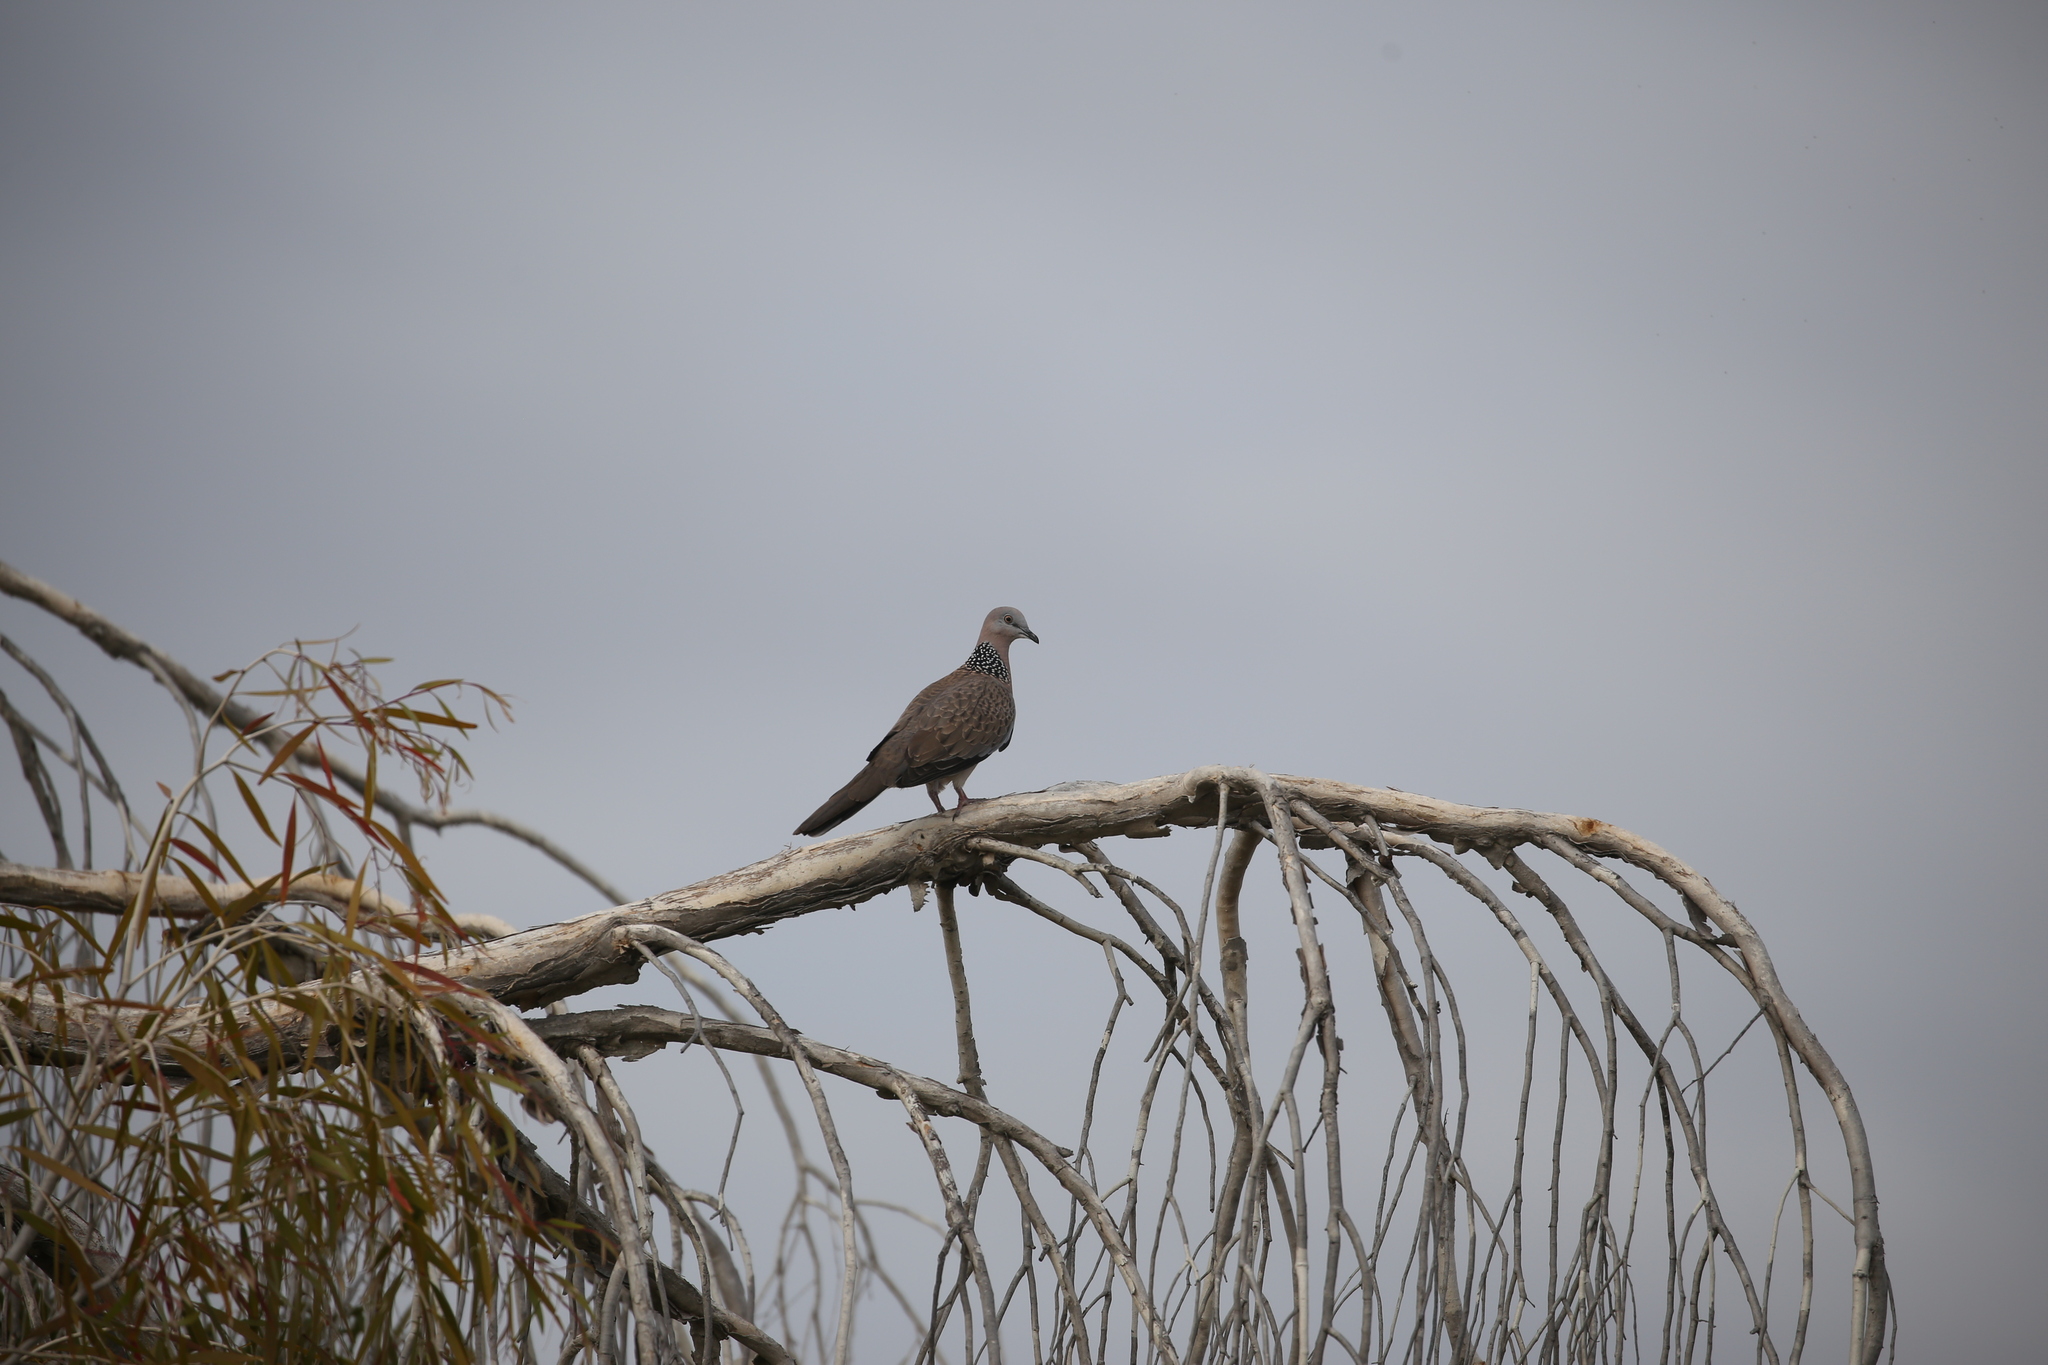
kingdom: Animalia
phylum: Chordata
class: Aves
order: Columbiformes
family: Columbidae
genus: Spilopelia
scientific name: Spilopelia chinensis
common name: Spotted dove
